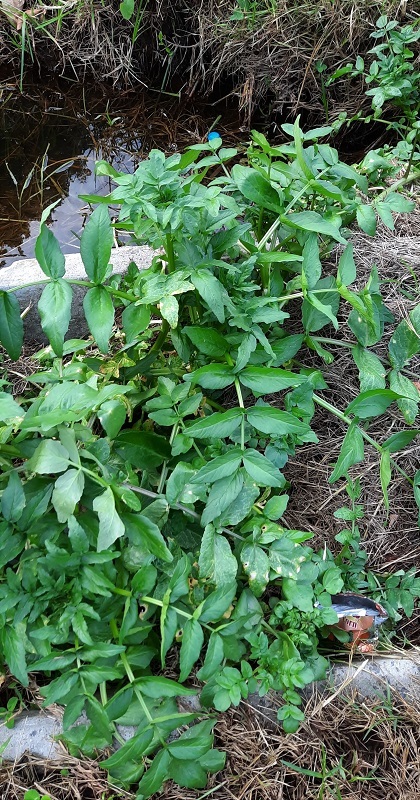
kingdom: Plantae
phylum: Tracheophyta
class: Magnoliopsida
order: Brassicales
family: Brassicaceae
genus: Nasturtium
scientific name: Nasturtium officinale
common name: Watercress
